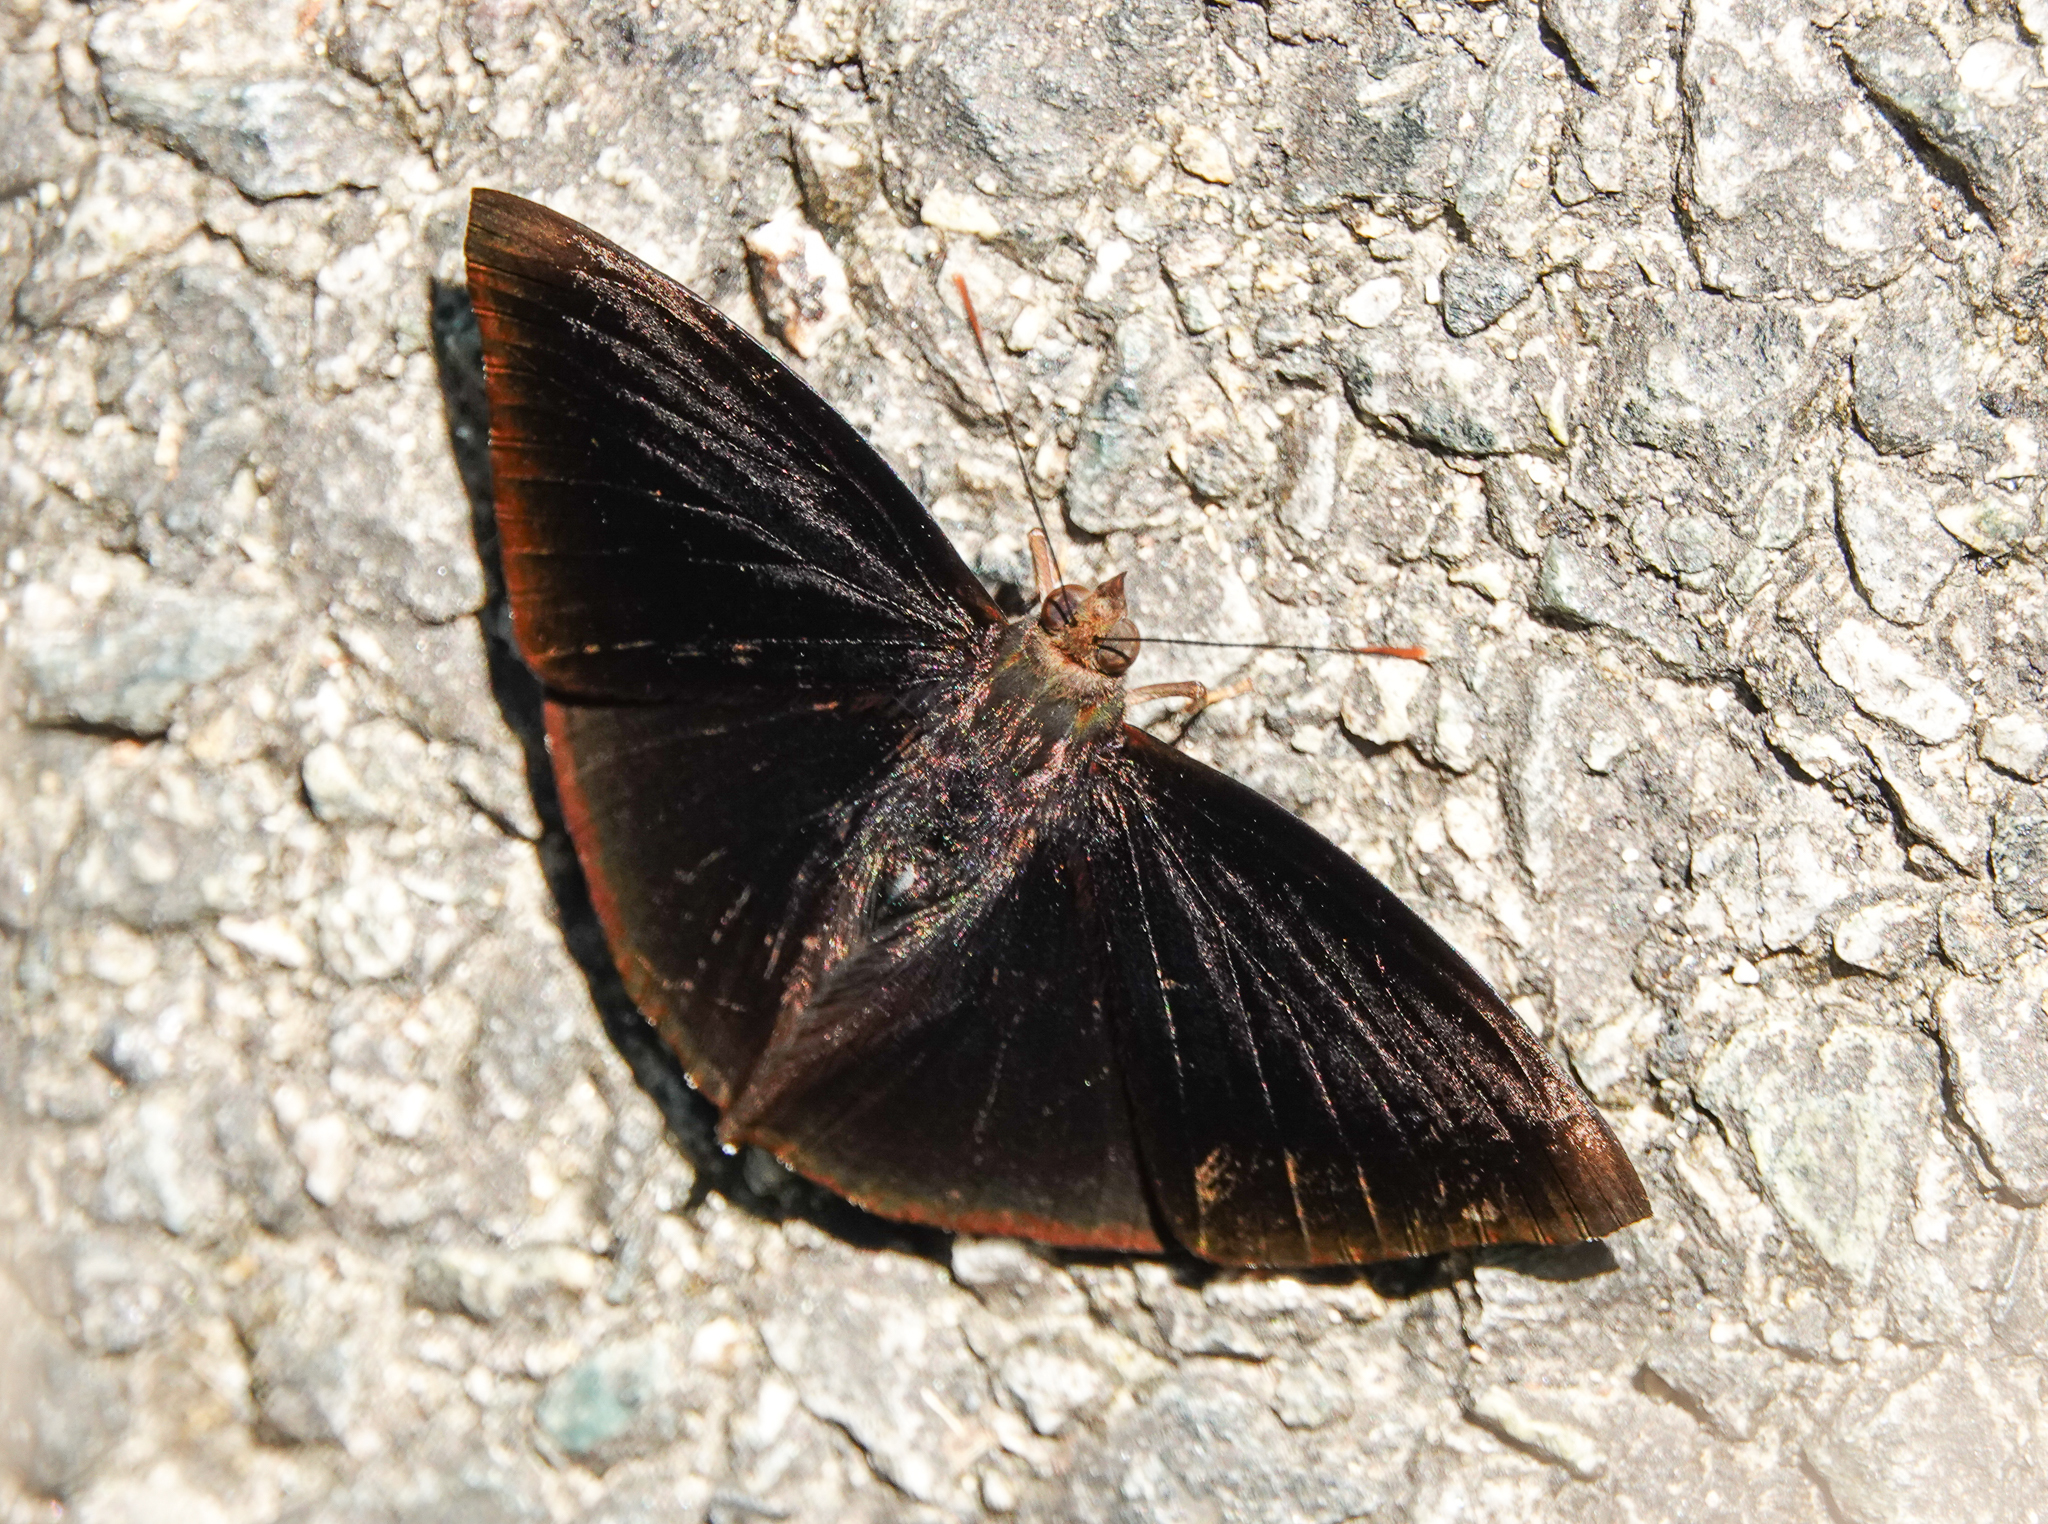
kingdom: Animalia
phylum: Arthropoda
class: Insecta
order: Lepidoptera
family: Nymphalidae
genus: Apatura
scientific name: Apatura Rohana spec
